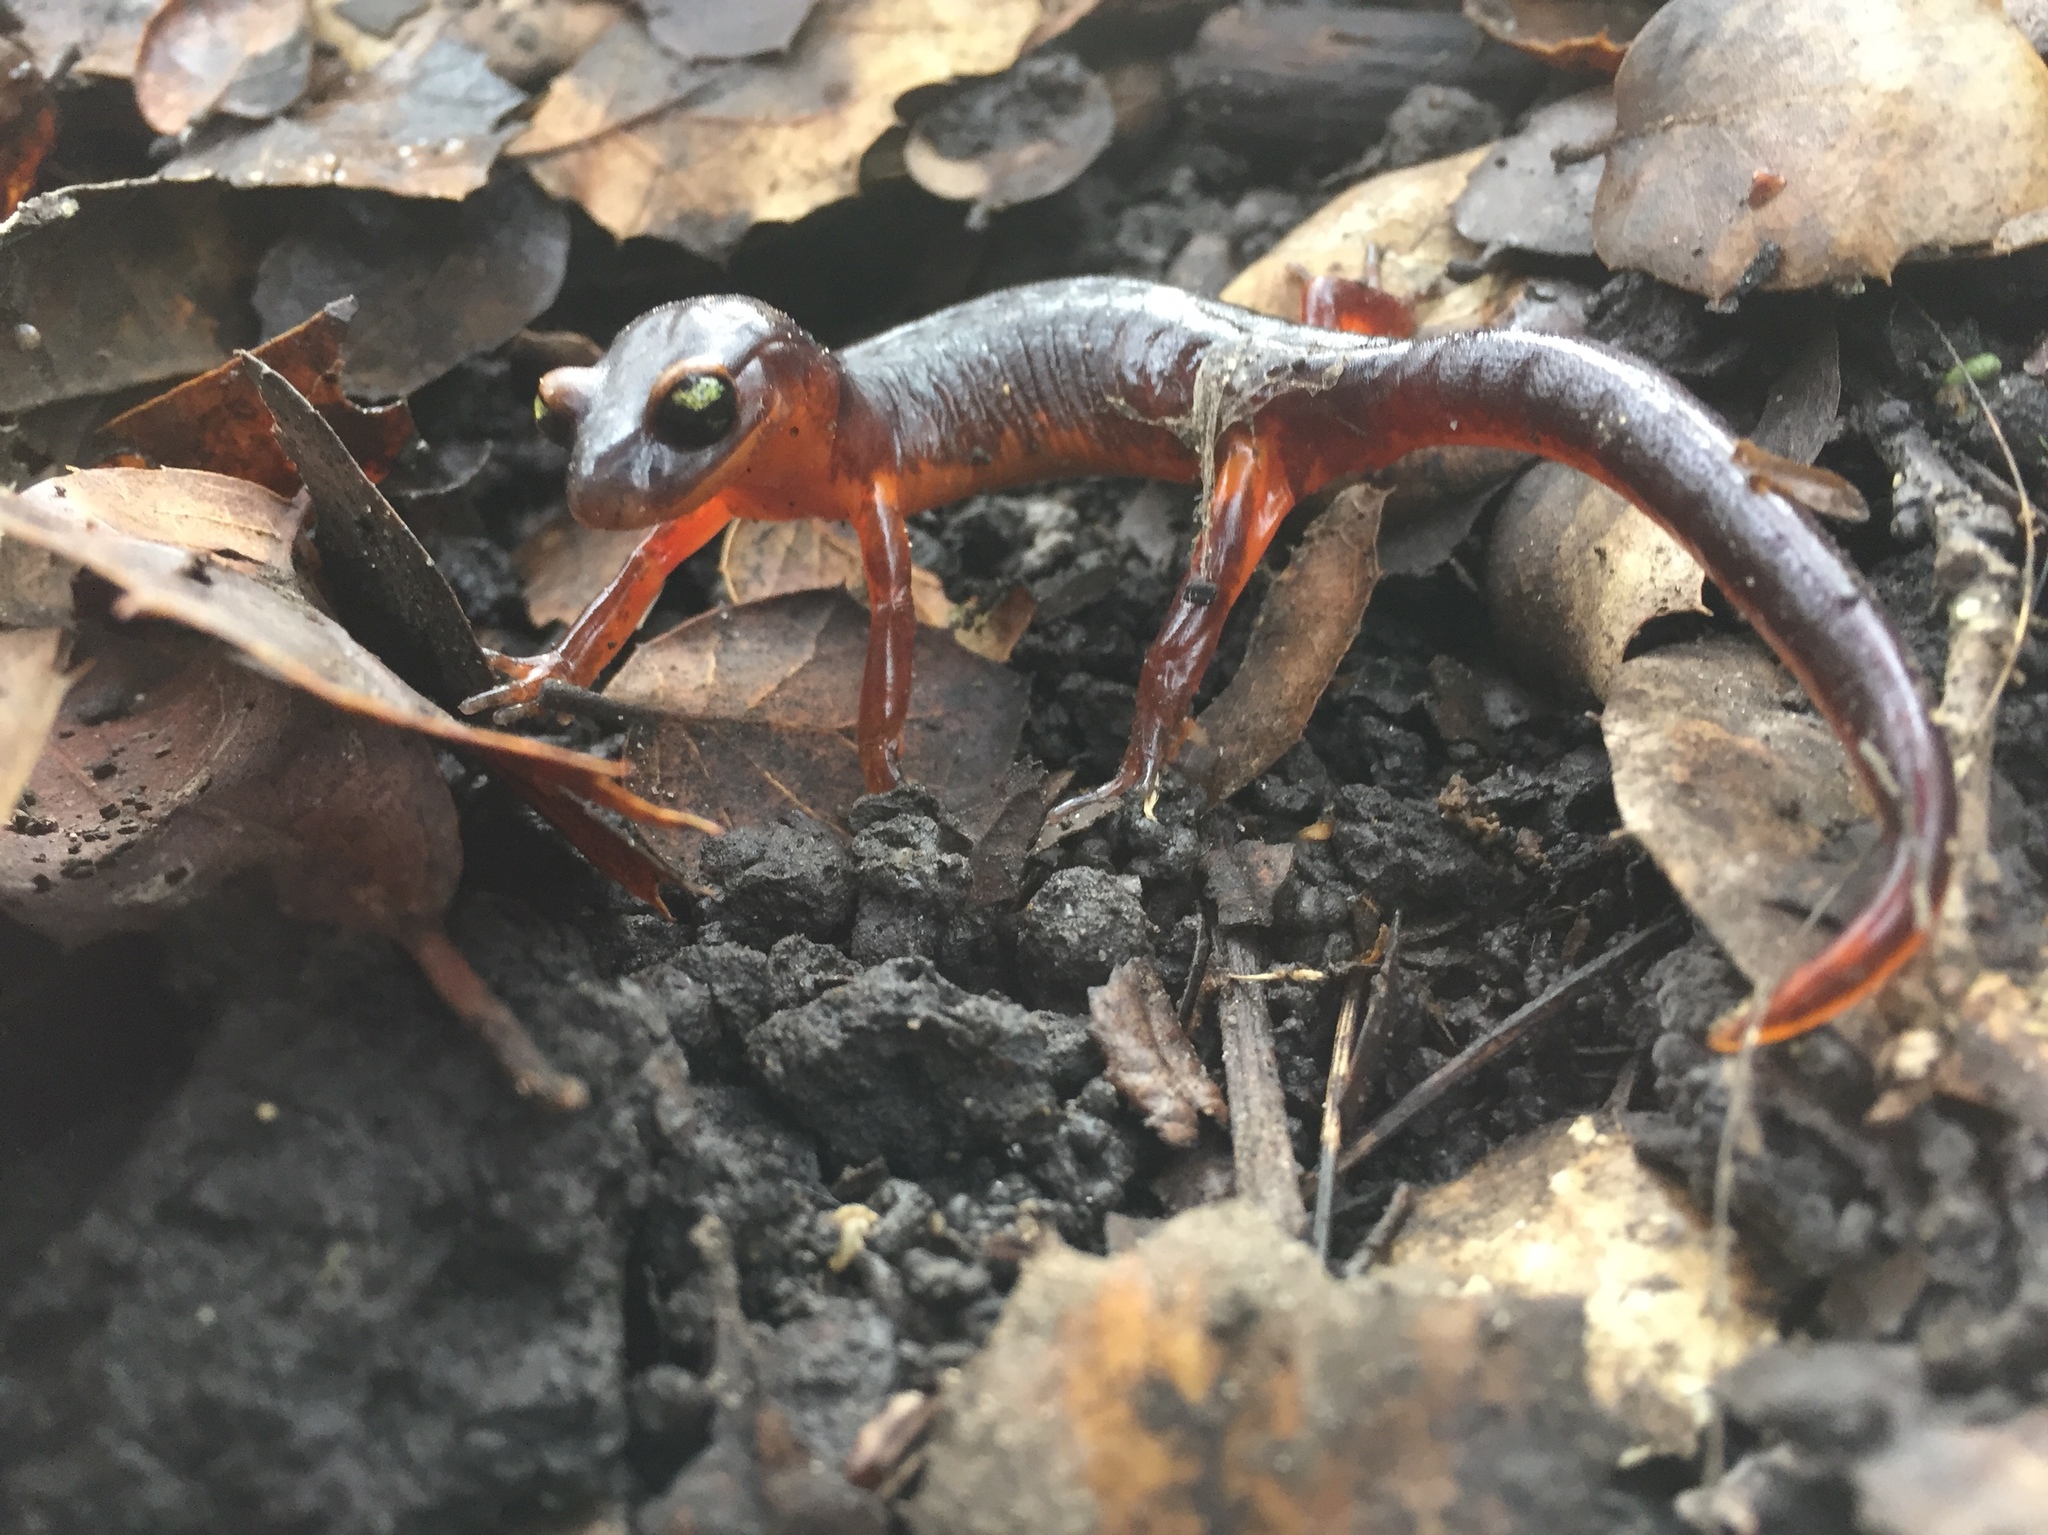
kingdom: Animalia
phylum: Chordata
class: Amphibia
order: Caudata
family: Plethodontidae
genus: Ensatina
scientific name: Ensatina eschscholtzii
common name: Ensatina
